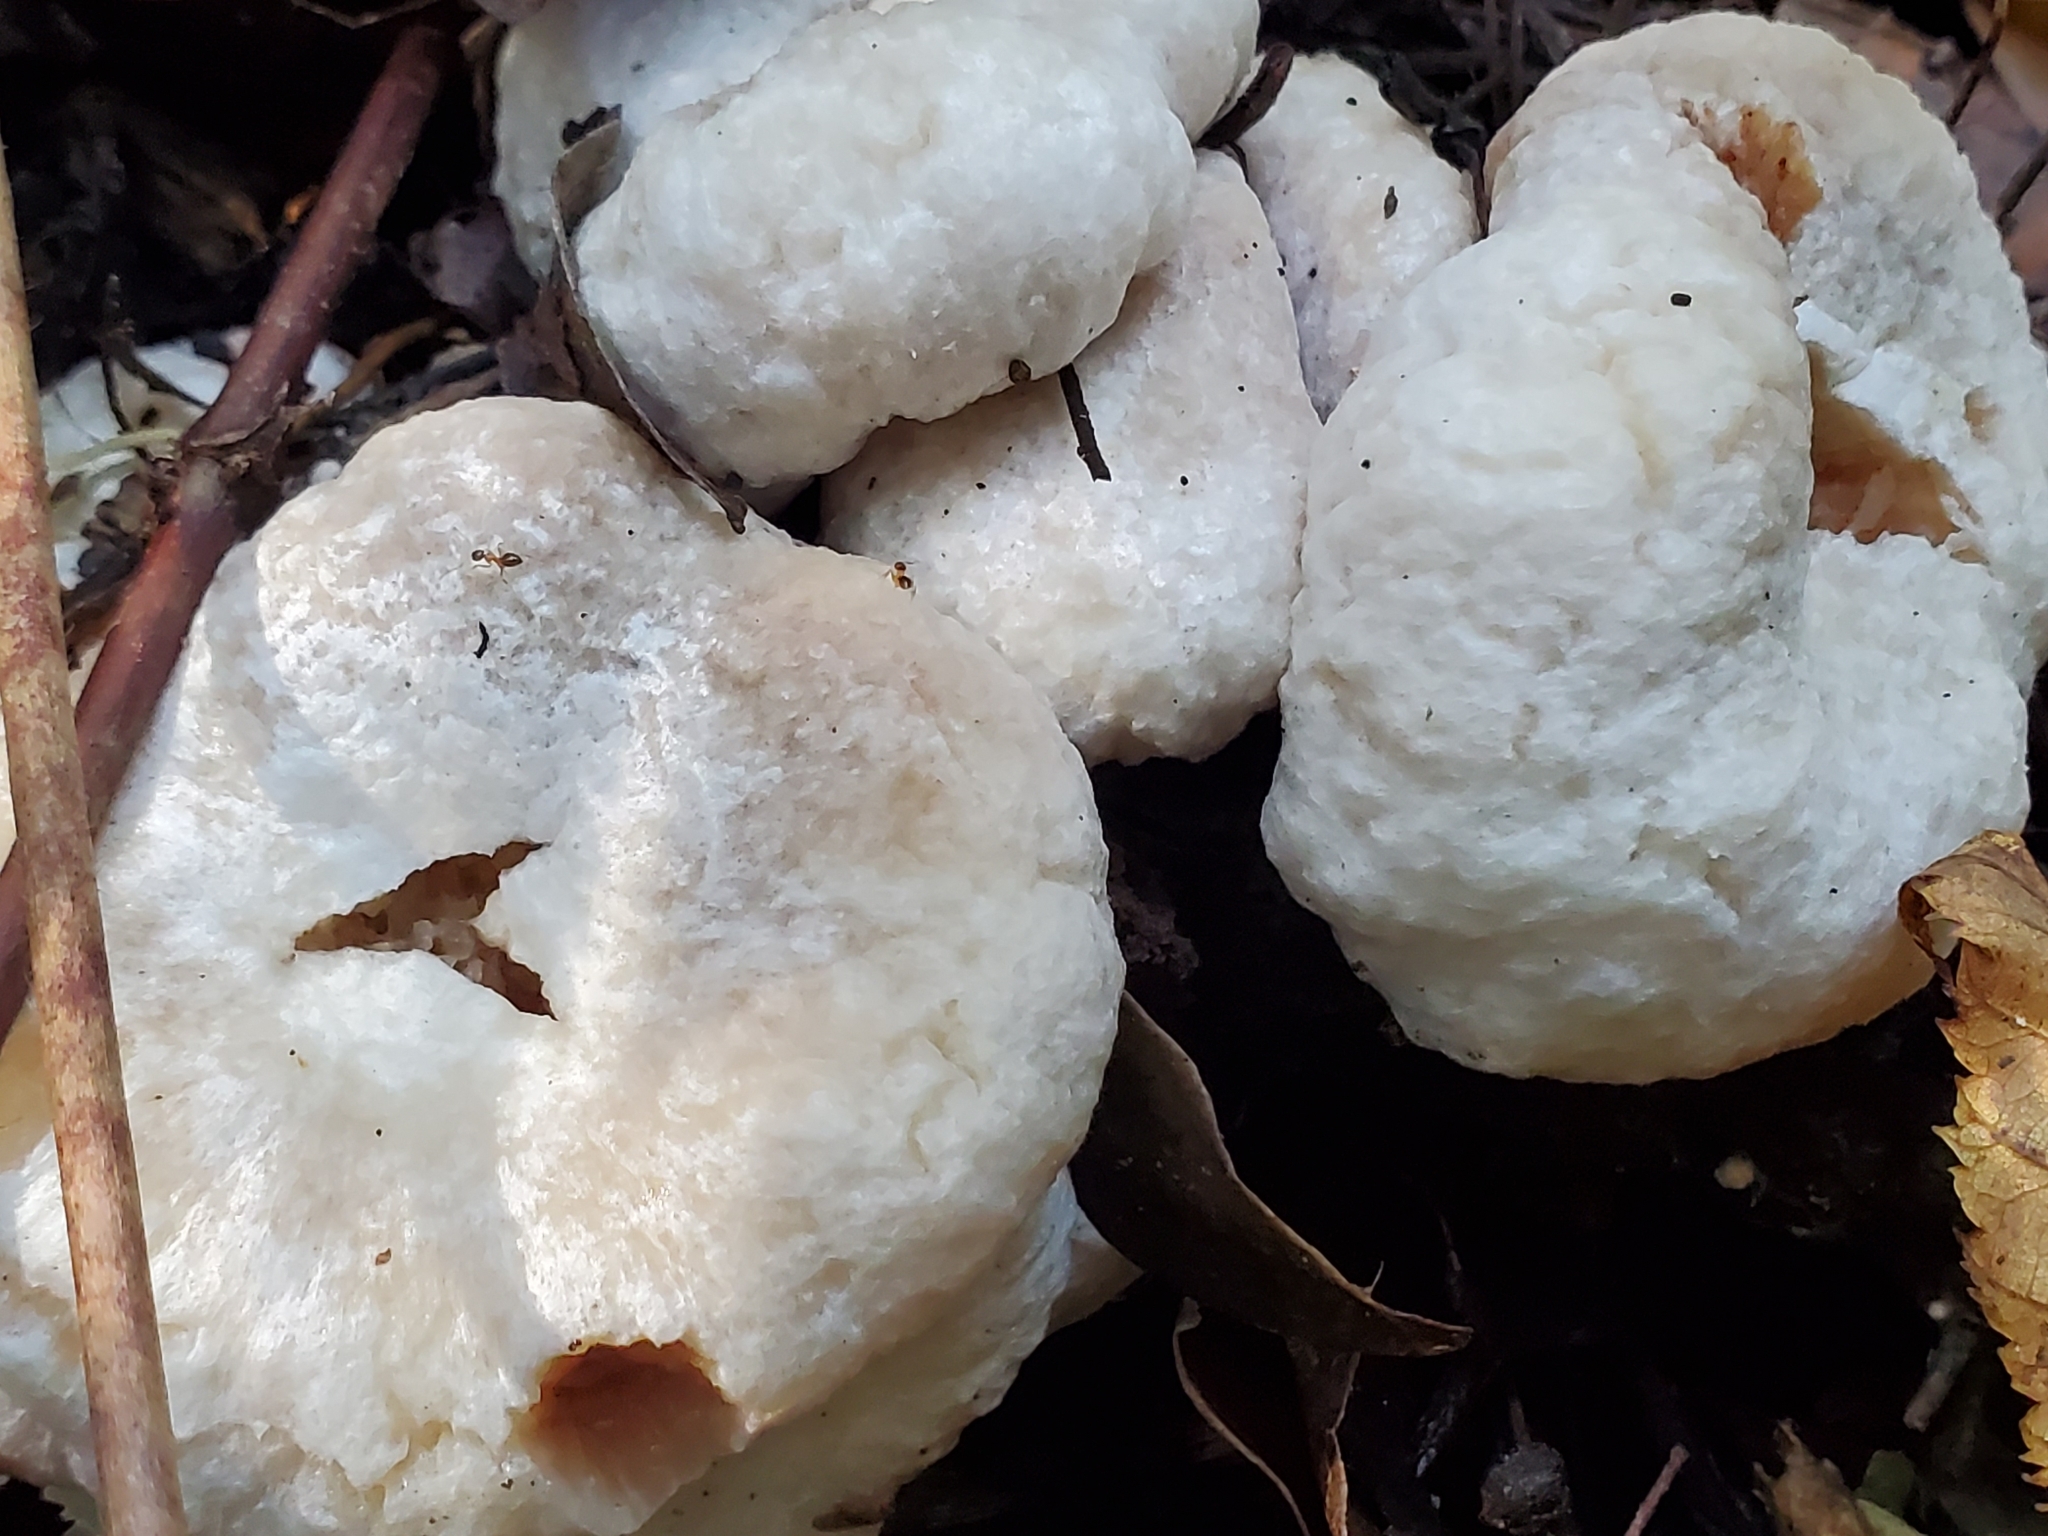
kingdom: Fungi
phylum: Basidiomycota
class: Agaricomycetes
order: Agaricales
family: Entolomataceae
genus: Entoloma
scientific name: Entoloma abortivum
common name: Aborted entoloma
